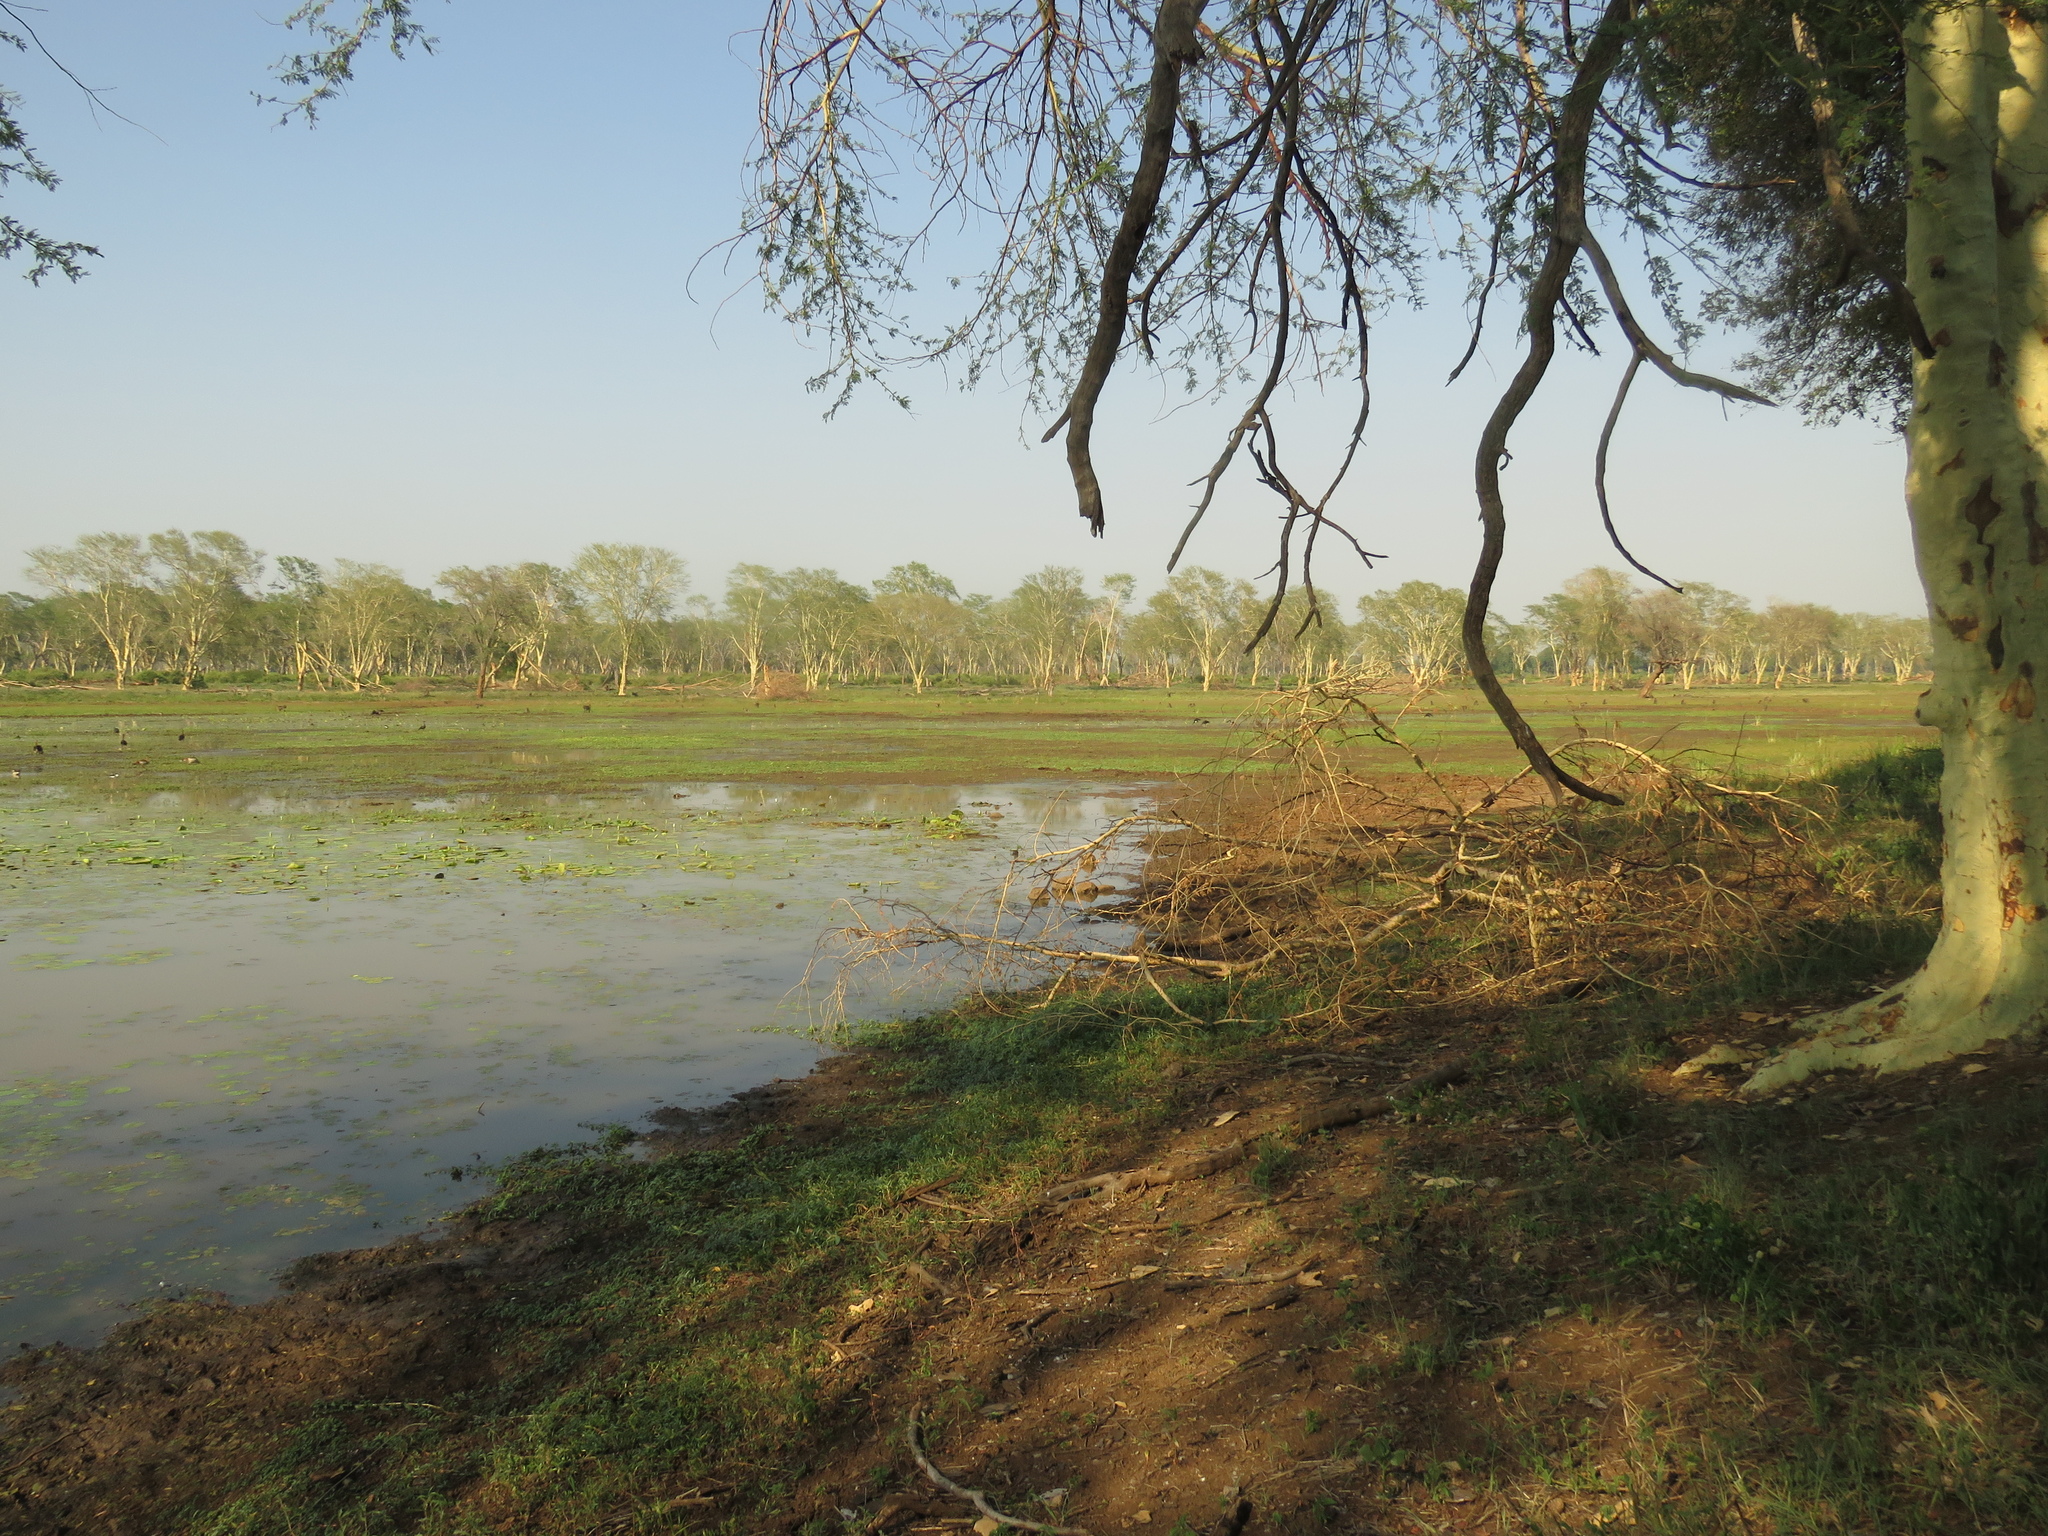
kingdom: Plantae
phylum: Tracheophyta
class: Magnoliopsida
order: Fabales
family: Fabaceae
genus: Vachellia
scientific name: Vachellia xanthophloea
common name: Fever tree
